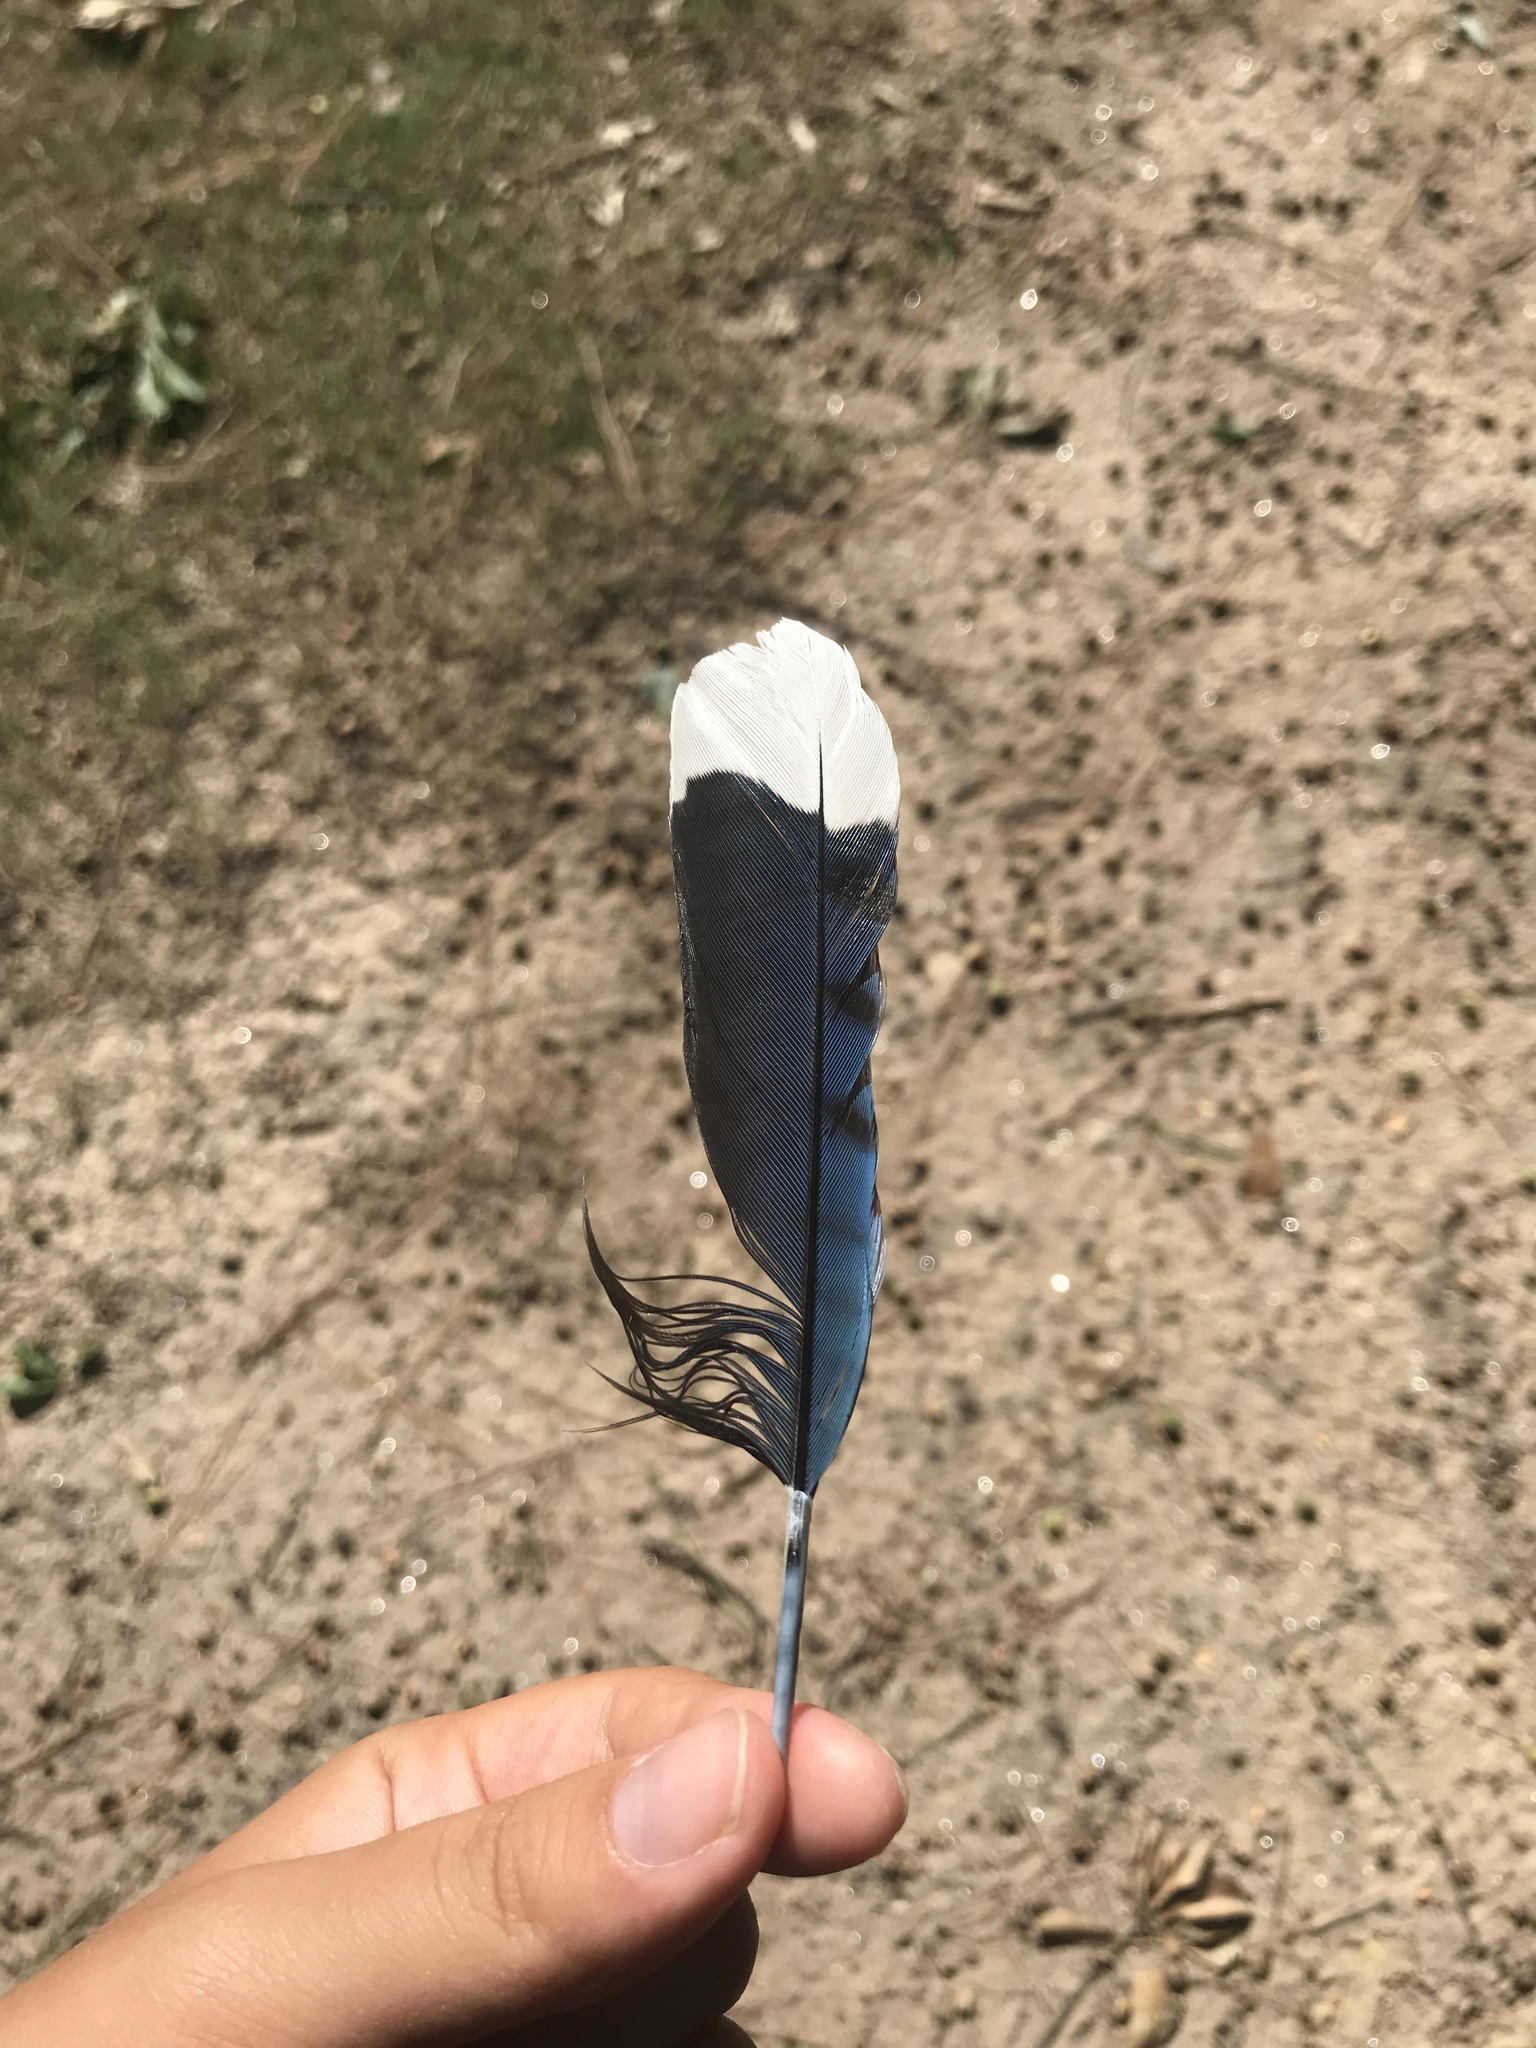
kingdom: Animalia
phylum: Chordata
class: Aves
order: Passeriformes
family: Corvidae
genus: Cyanocitta
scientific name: Cyanocitta cristata
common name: Blue jay
